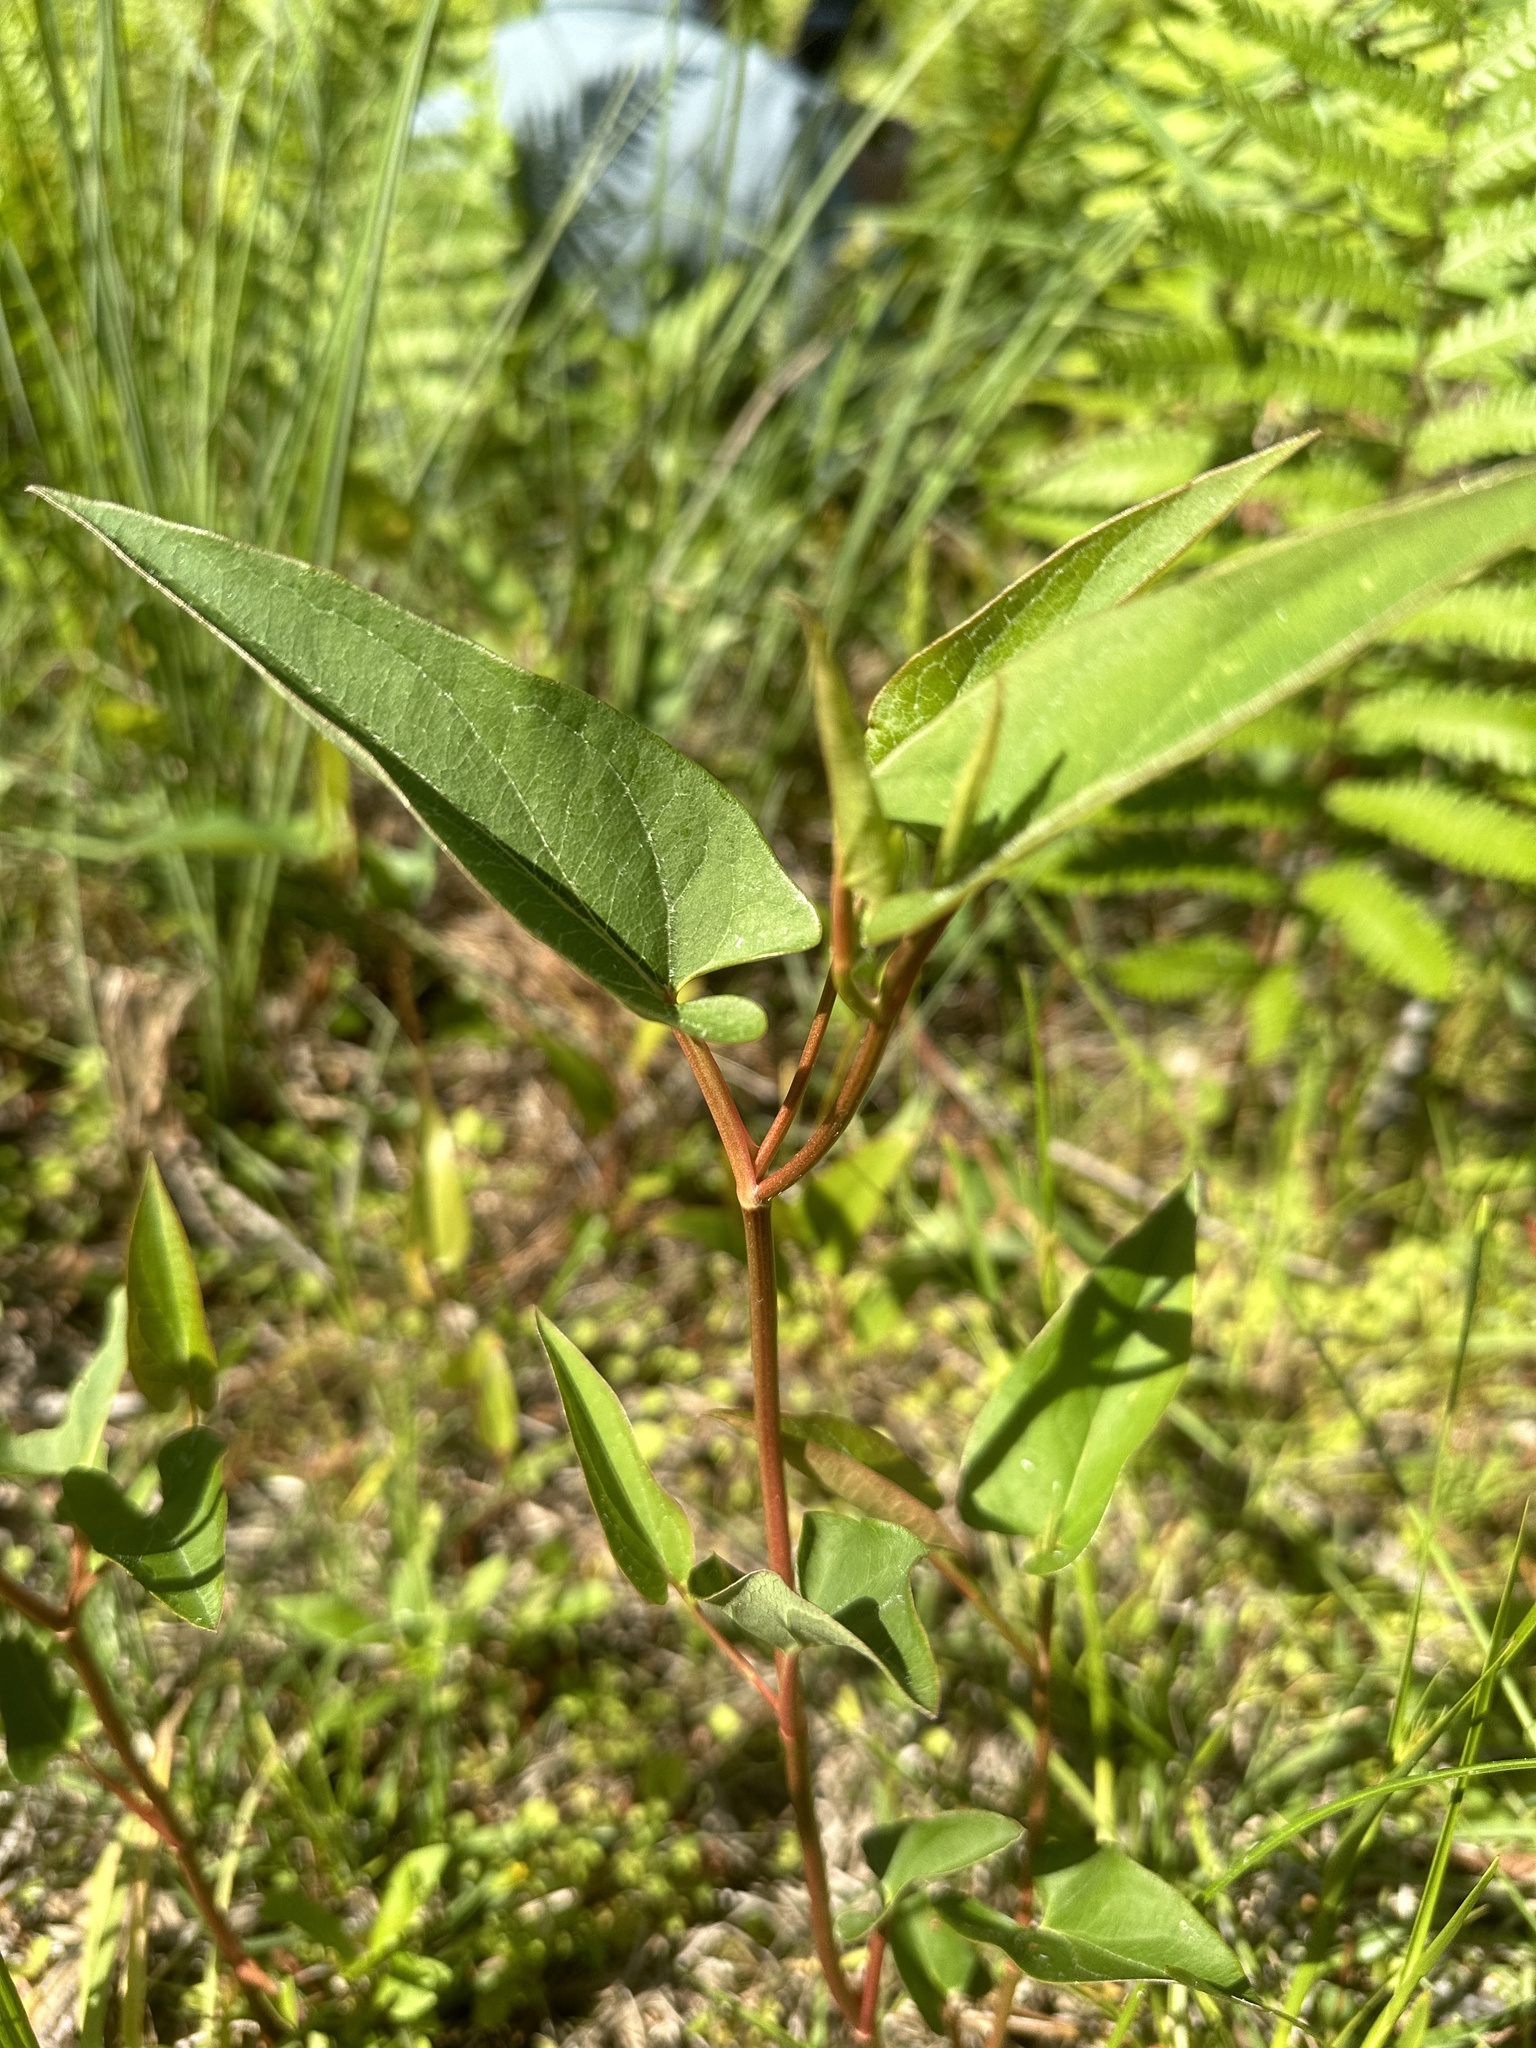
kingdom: Plantae
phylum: Tracheophyta
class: Magnoliopsida
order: Piperales
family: Saururaceae
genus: Saururus
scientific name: Saururus cernuus
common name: Lizard's-tail
